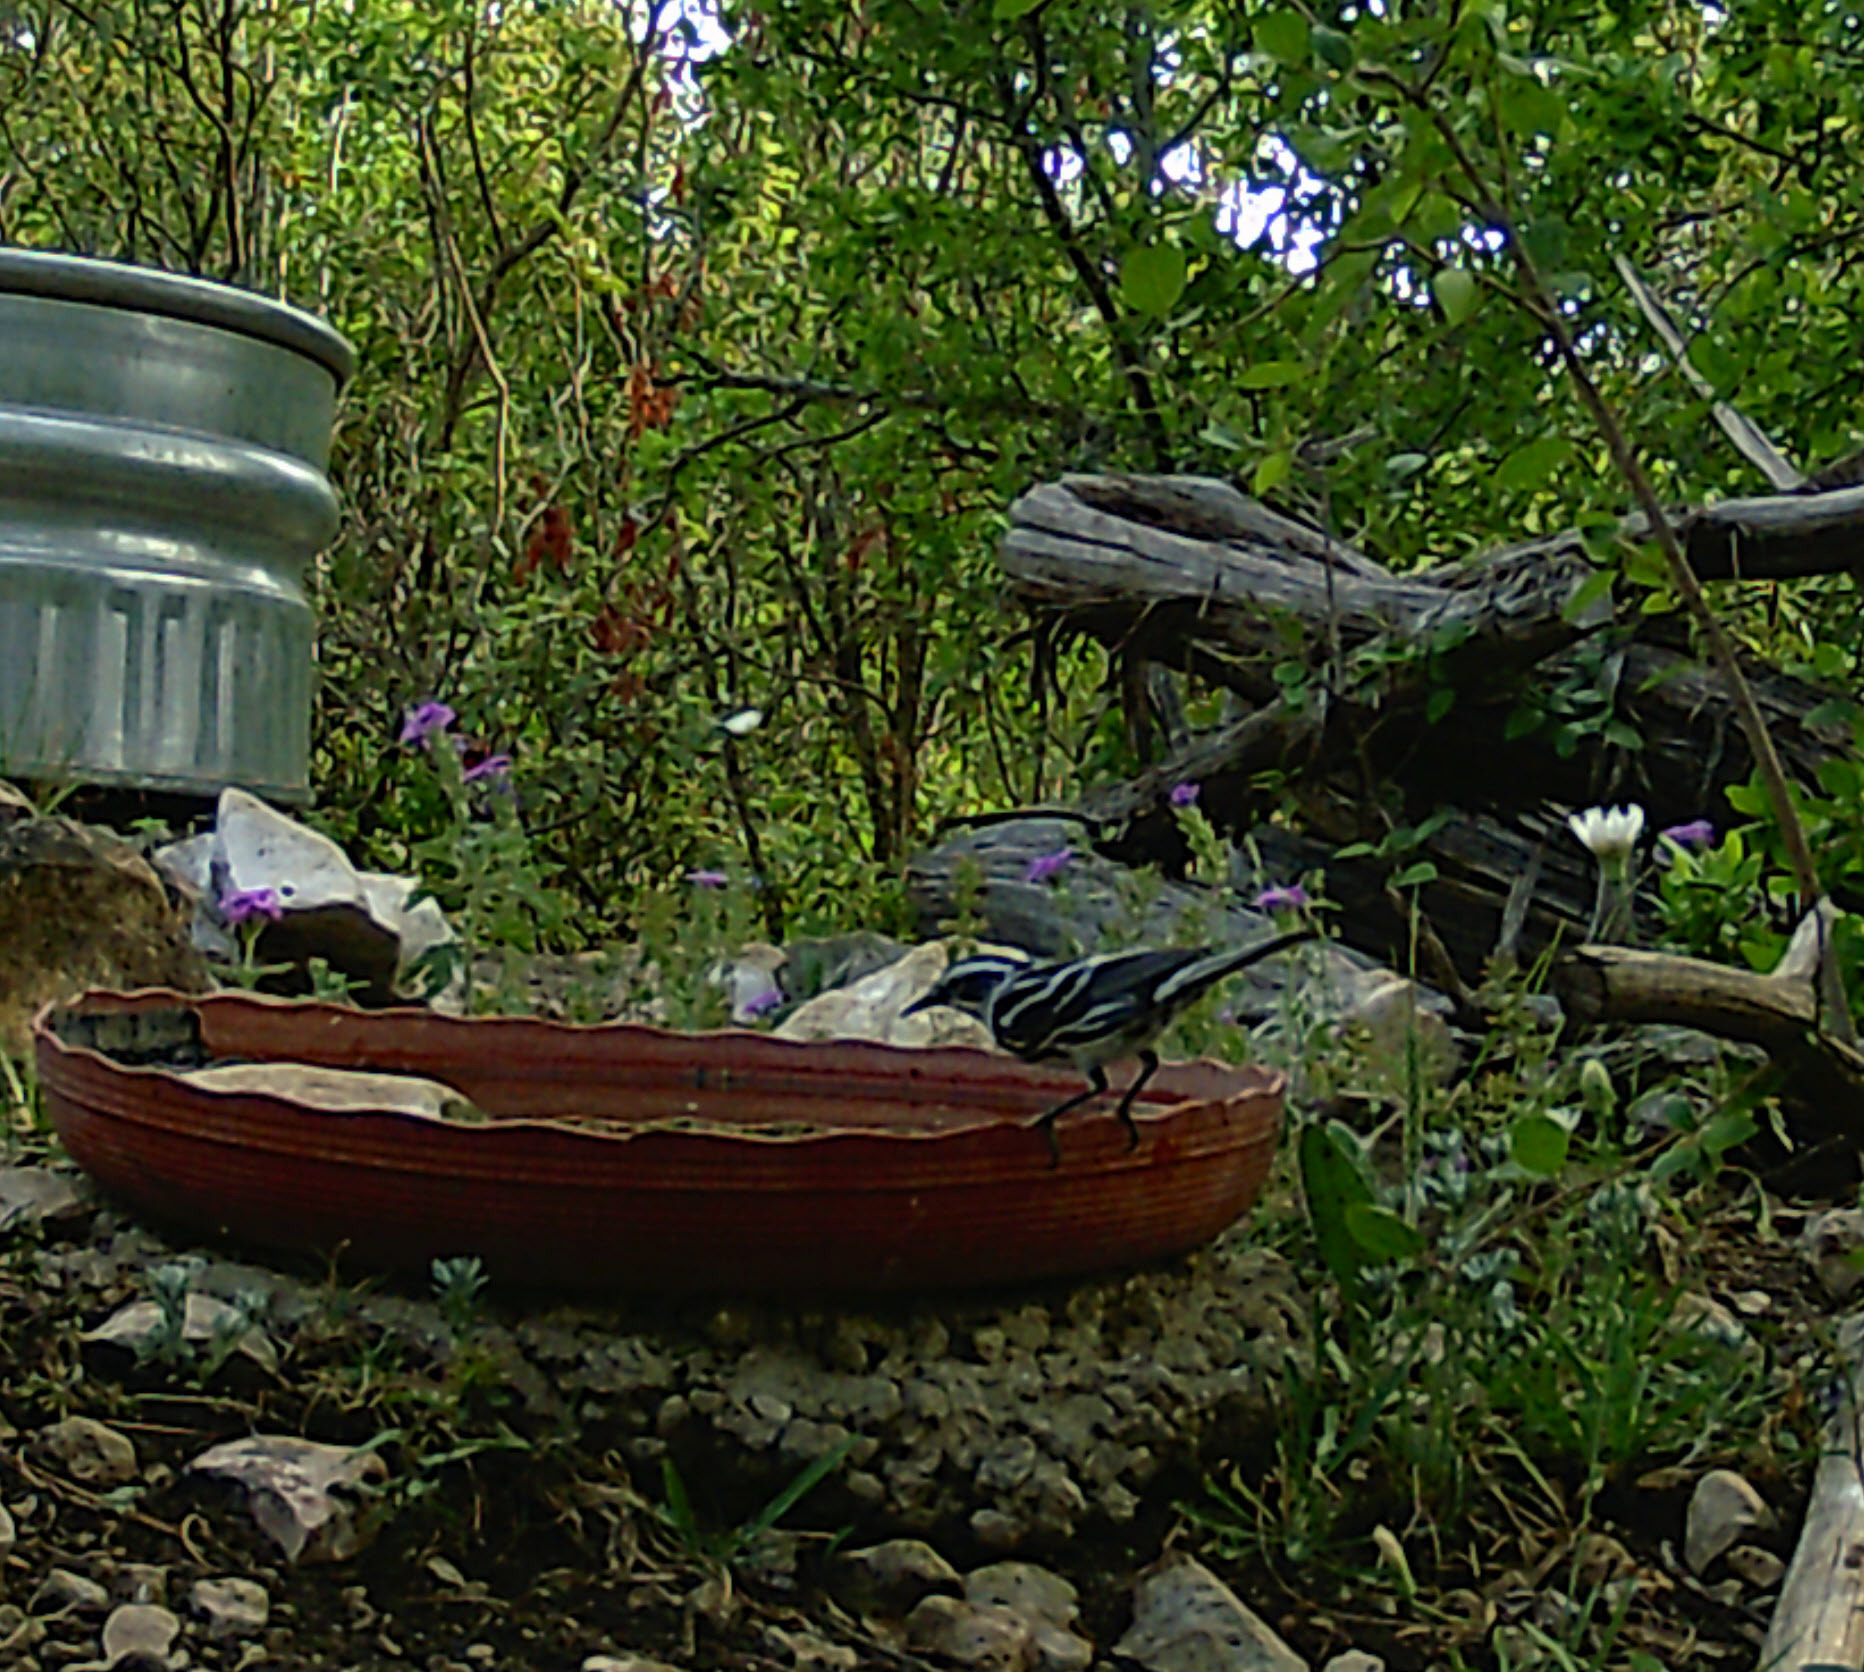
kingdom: Animalia
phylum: Chordata
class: Aves
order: Passeriformes
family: Parulidae
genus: Mniotilta
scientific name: Mniotilta varia
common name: Black-and-white warbler
